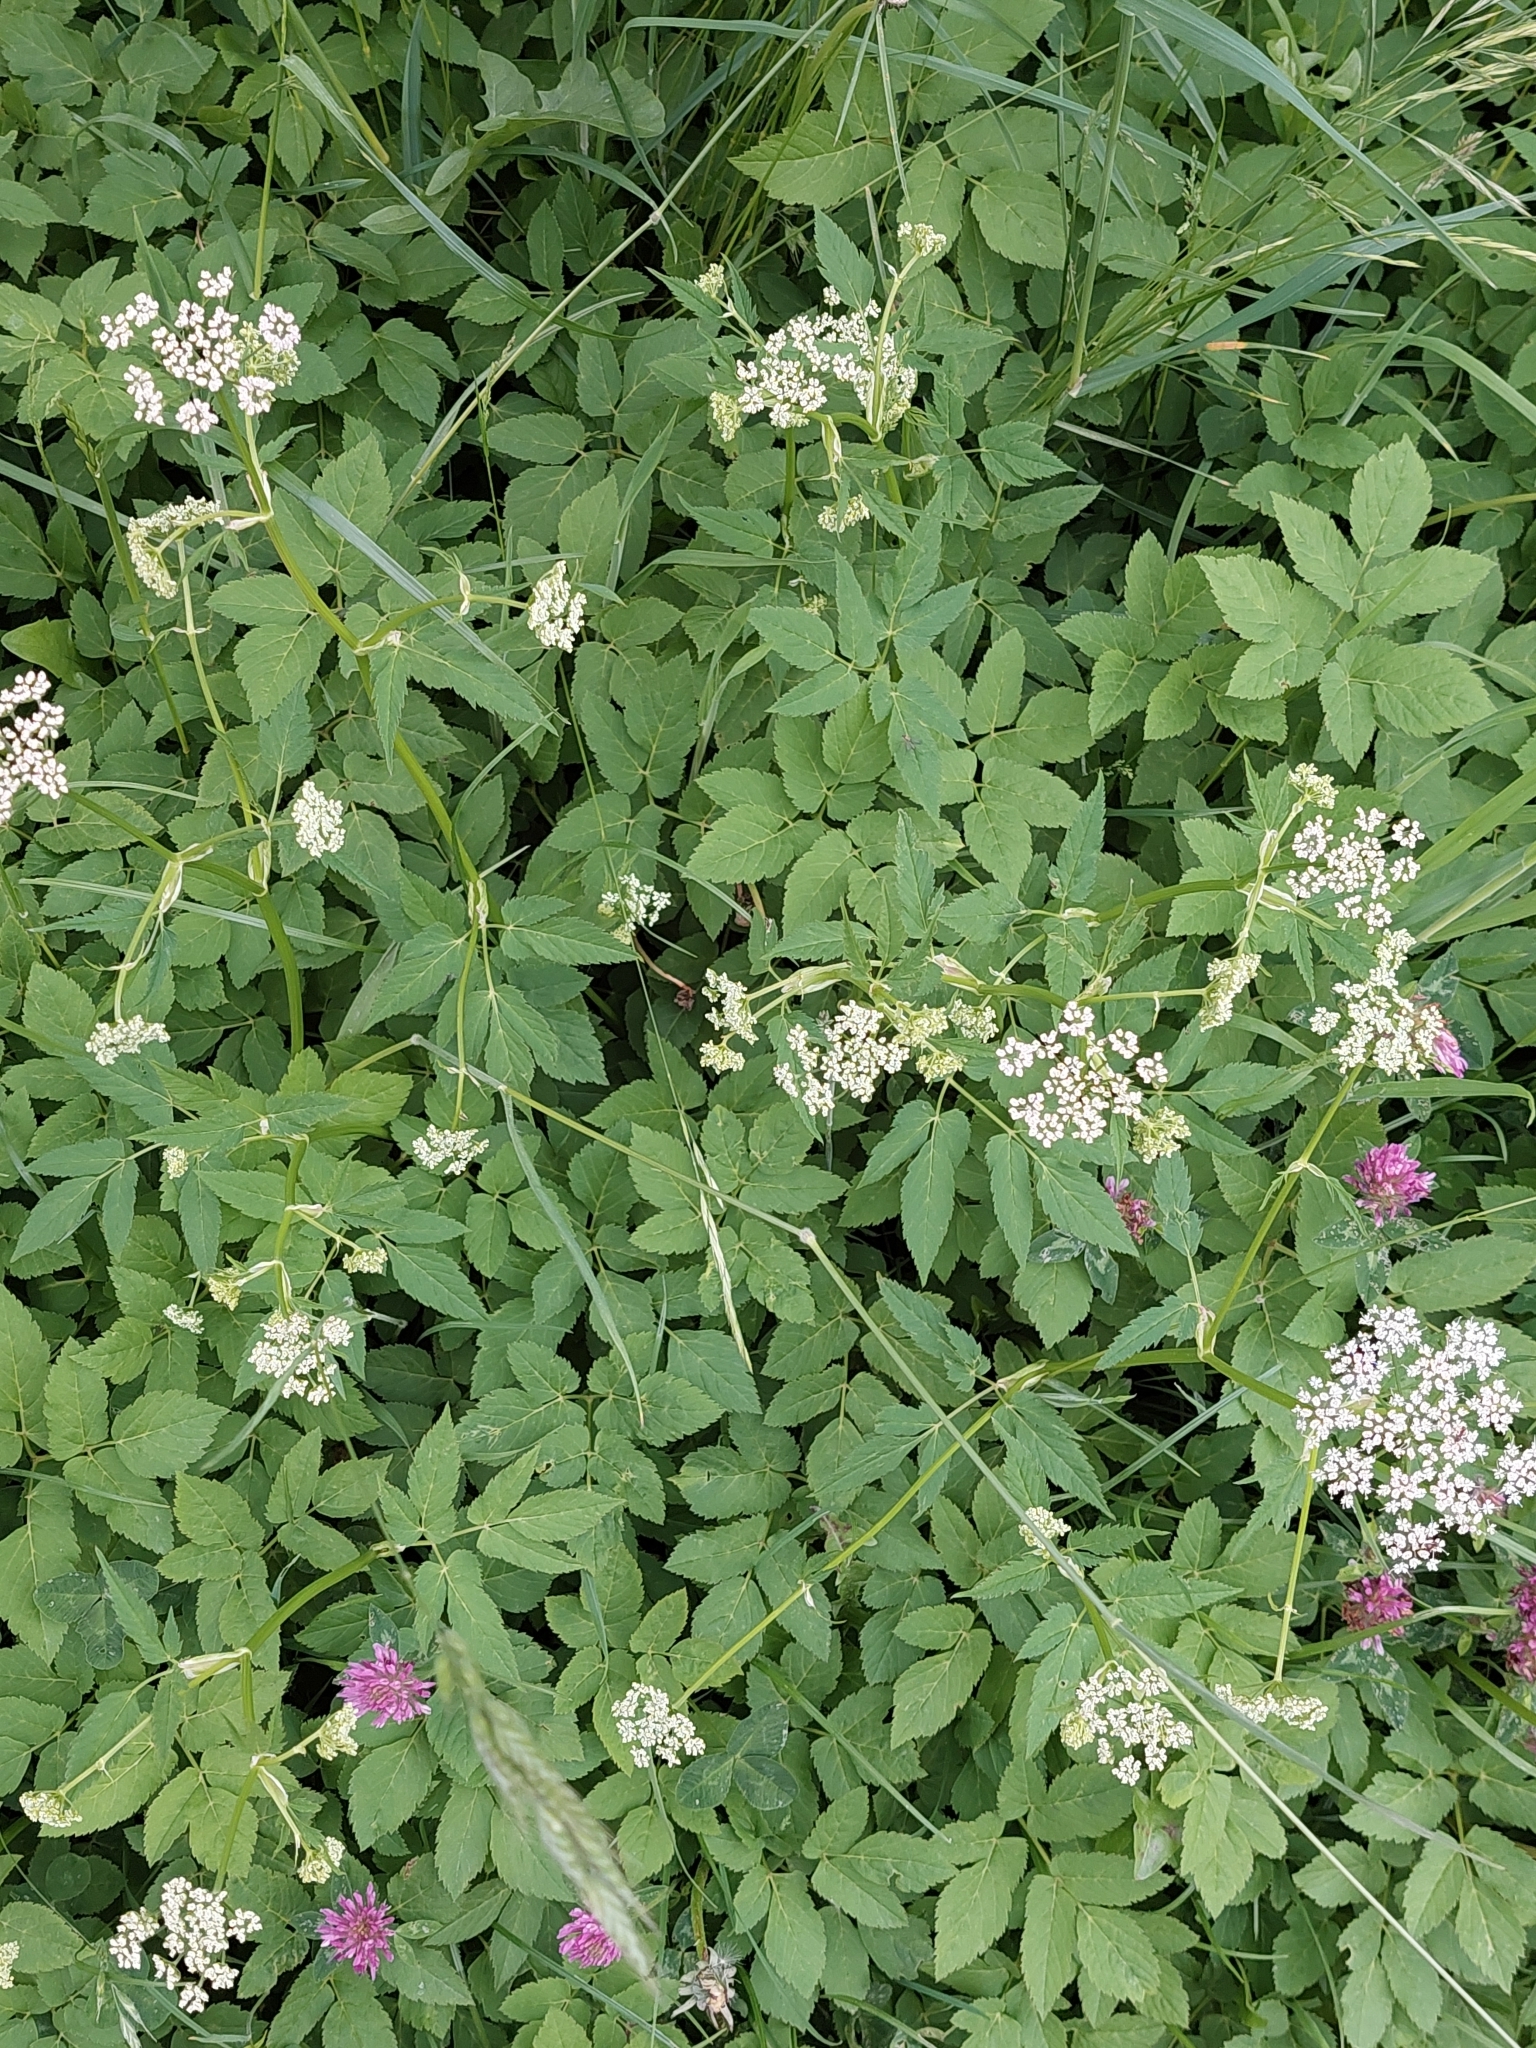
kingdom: Plantae
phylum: Tracheophyta
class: Magnoliopsida
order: Apiales
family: Apiaceae
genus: Aegopodium
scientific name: Aegopodium podagraria
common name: Ground-elder
